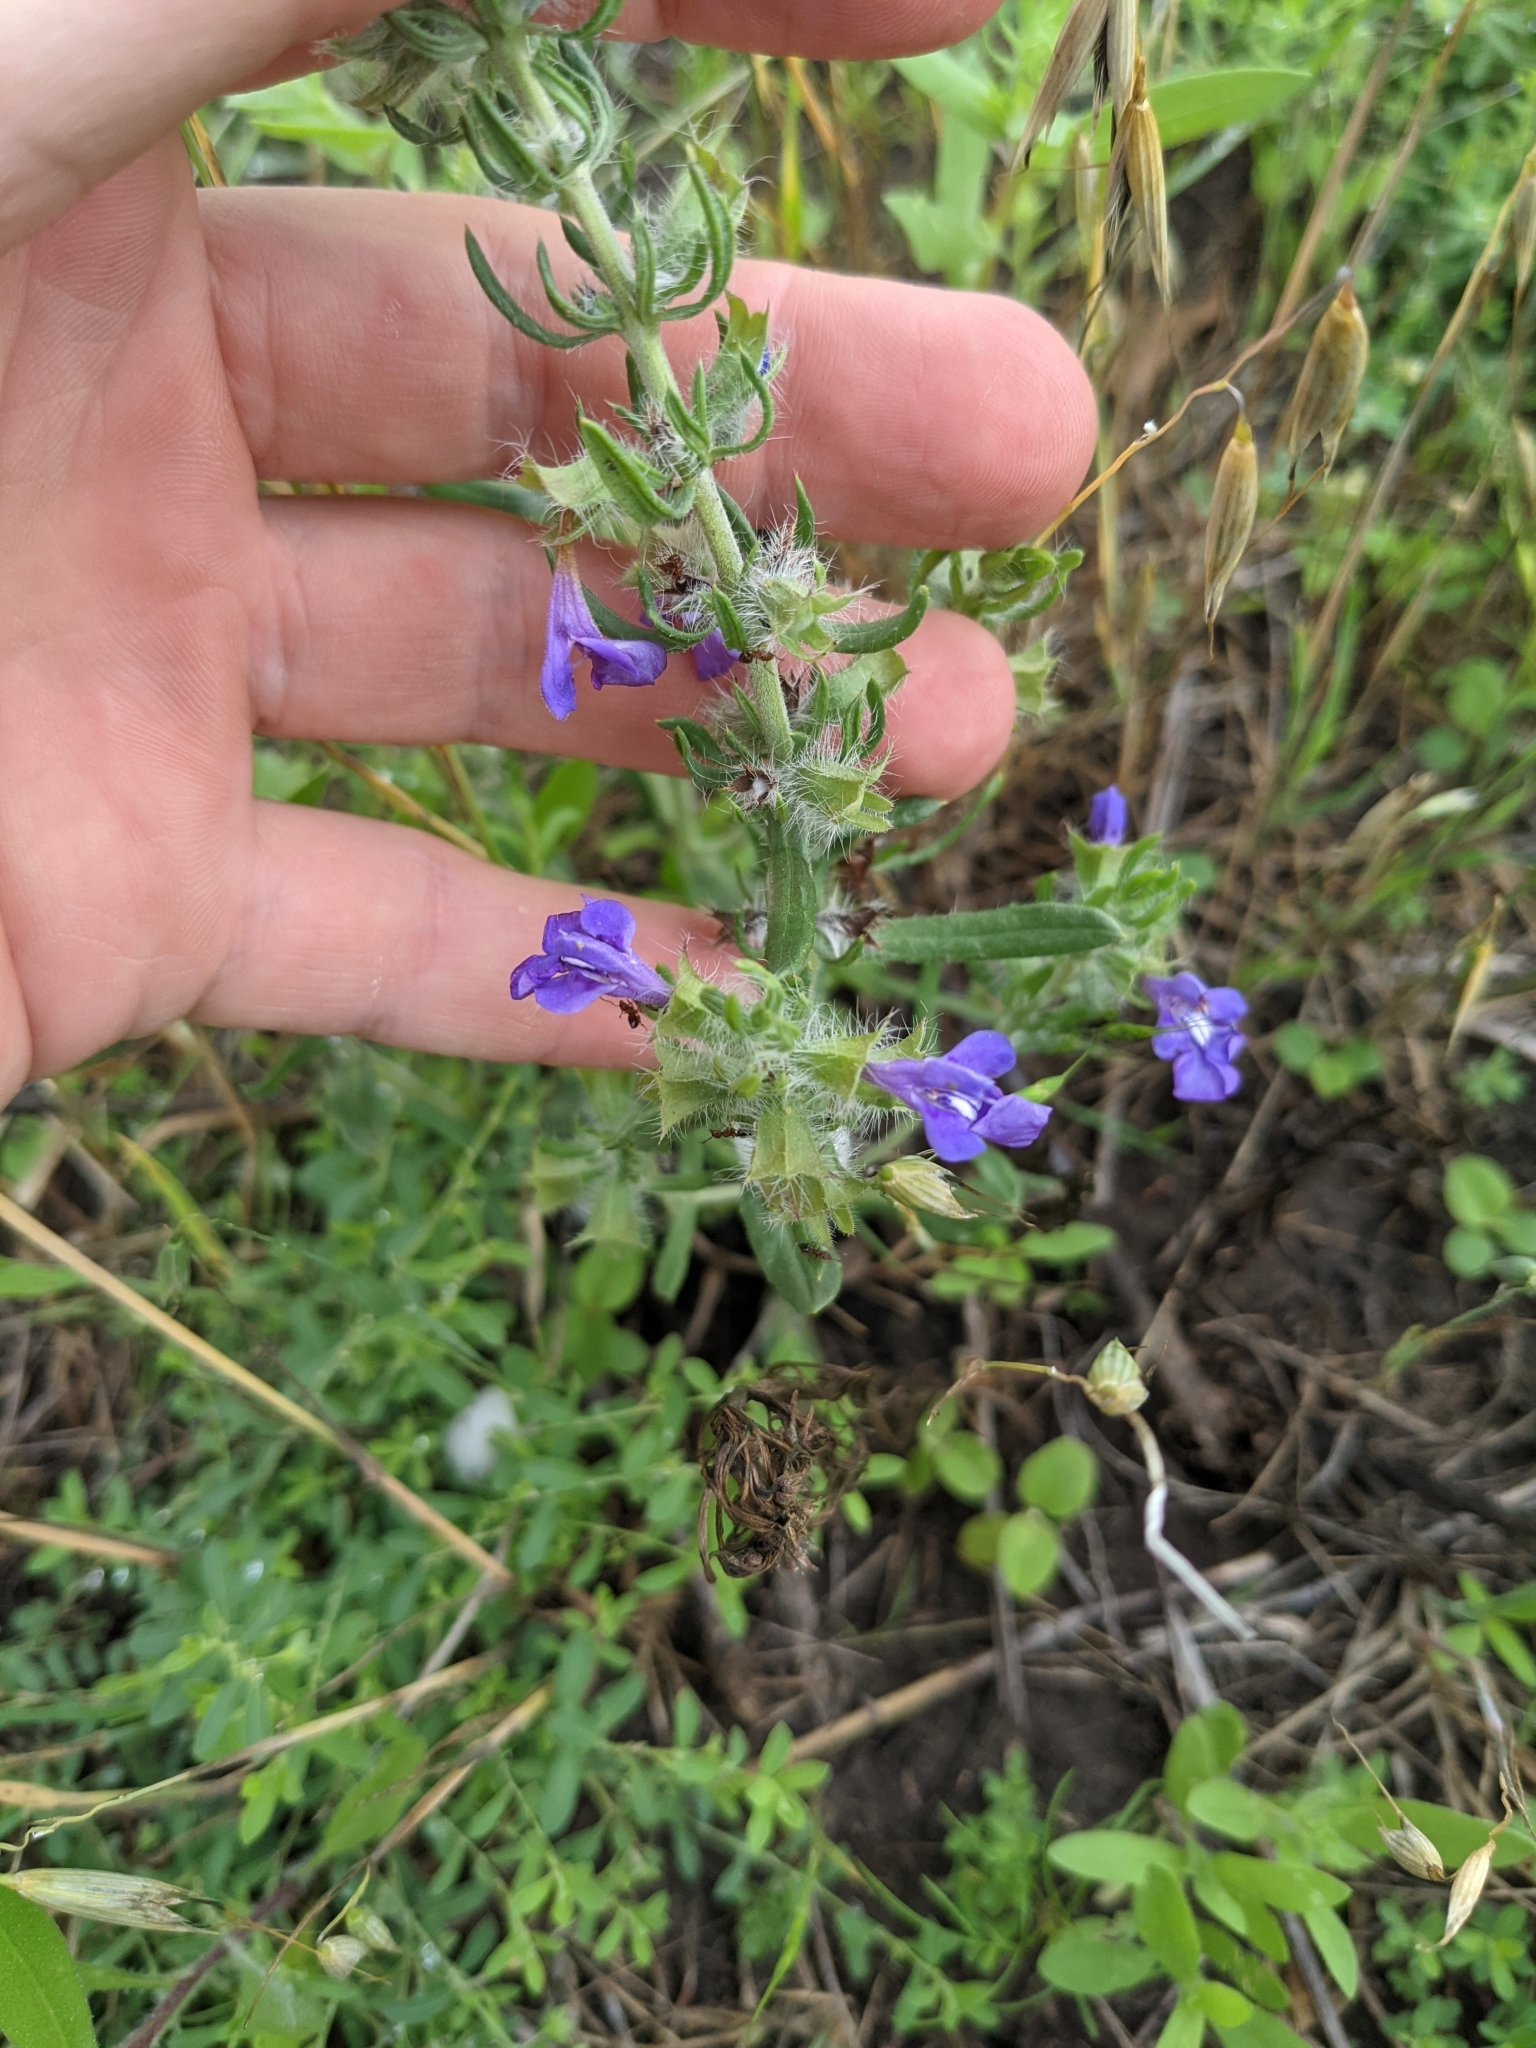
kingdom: Plantae
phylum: Tracheophyta
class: Magnoliopsida
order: Lamiales
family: Lamiaceae
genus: Salvia
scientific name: Salvia texana
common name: Texas sage
